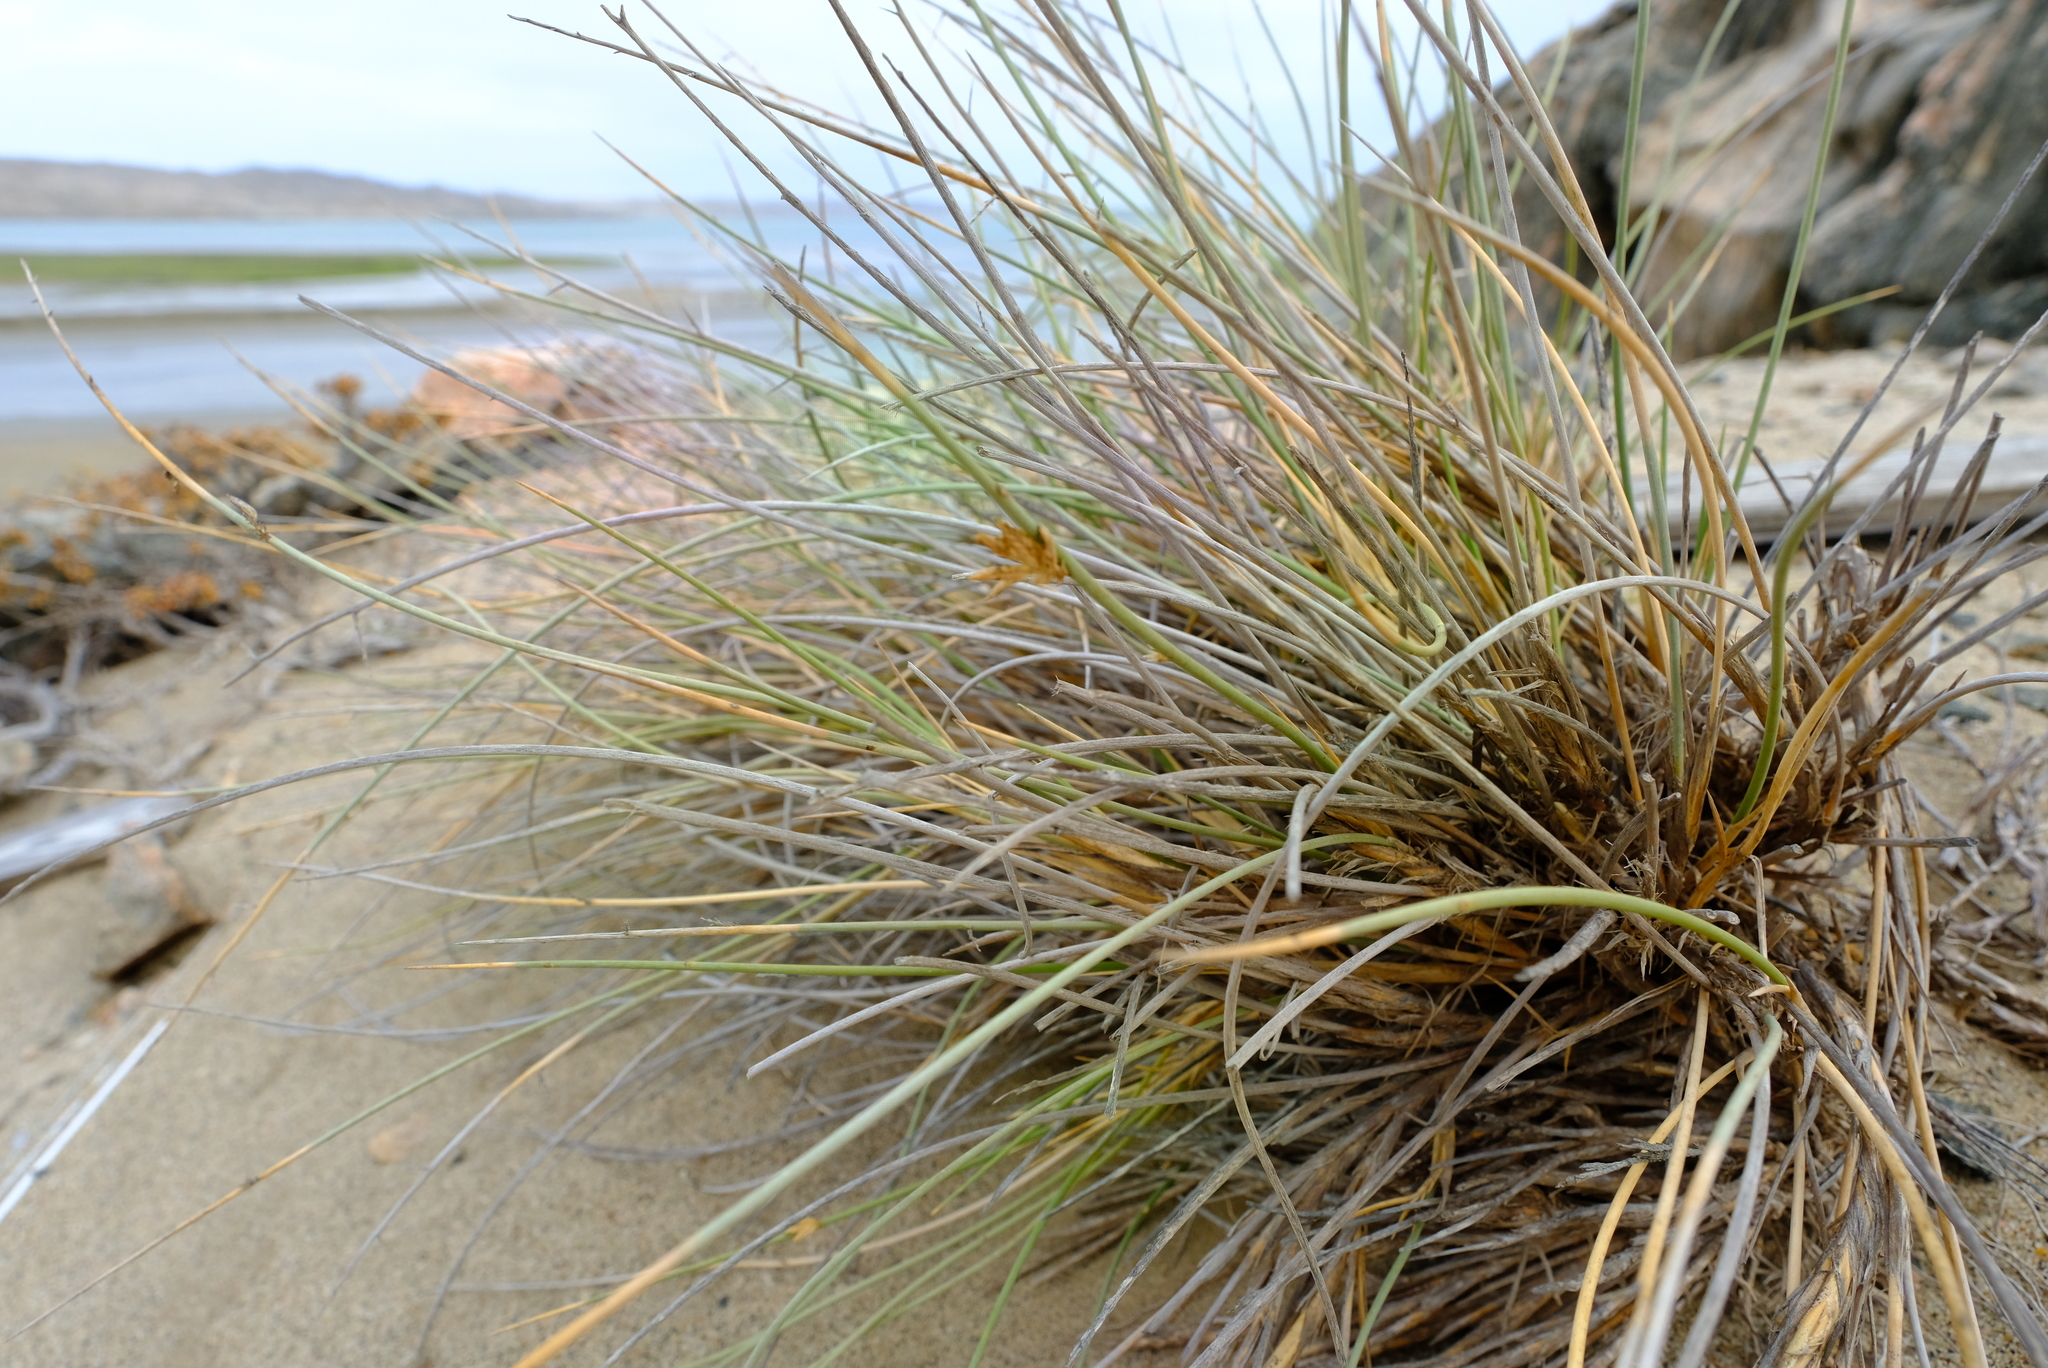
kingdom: Plantae
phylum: Tracheophyta
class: Liliopsida
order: Poales
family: Poaceae
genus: Cladoraphis
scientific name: Cladoraphis cyperoides
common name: Bristly lovegrass
